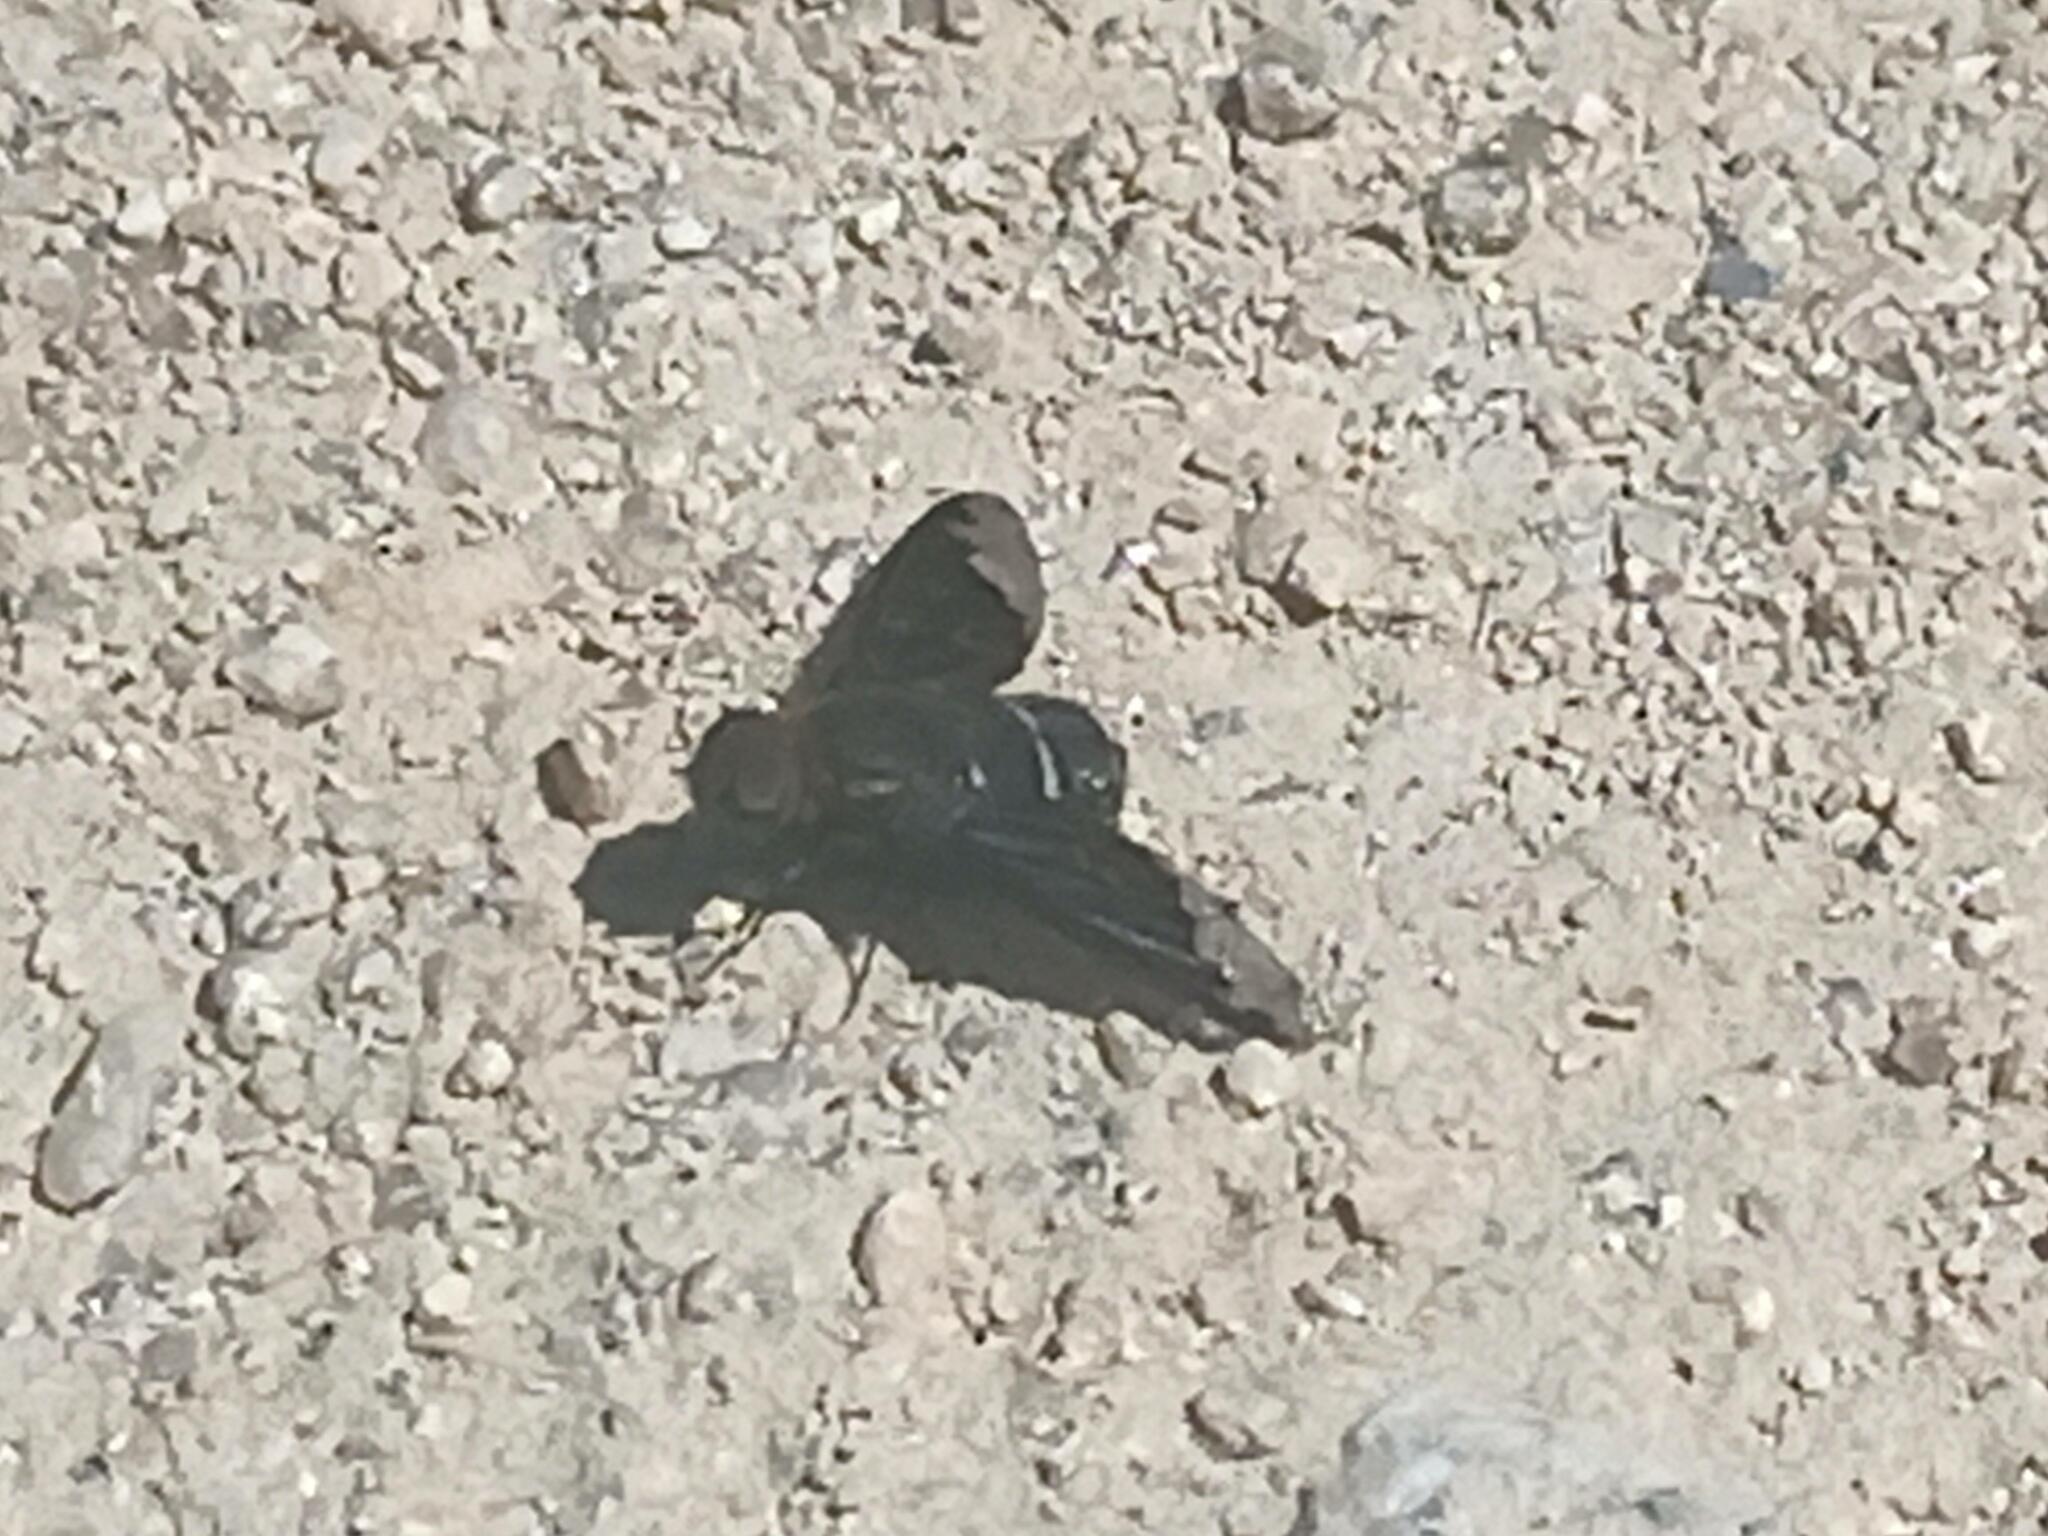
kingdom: Animalia
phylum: Arthropoda
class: Insecta
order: Diptera
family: Bombyliidae
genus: Hemipenthes
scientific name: Hemipenthes velutina
